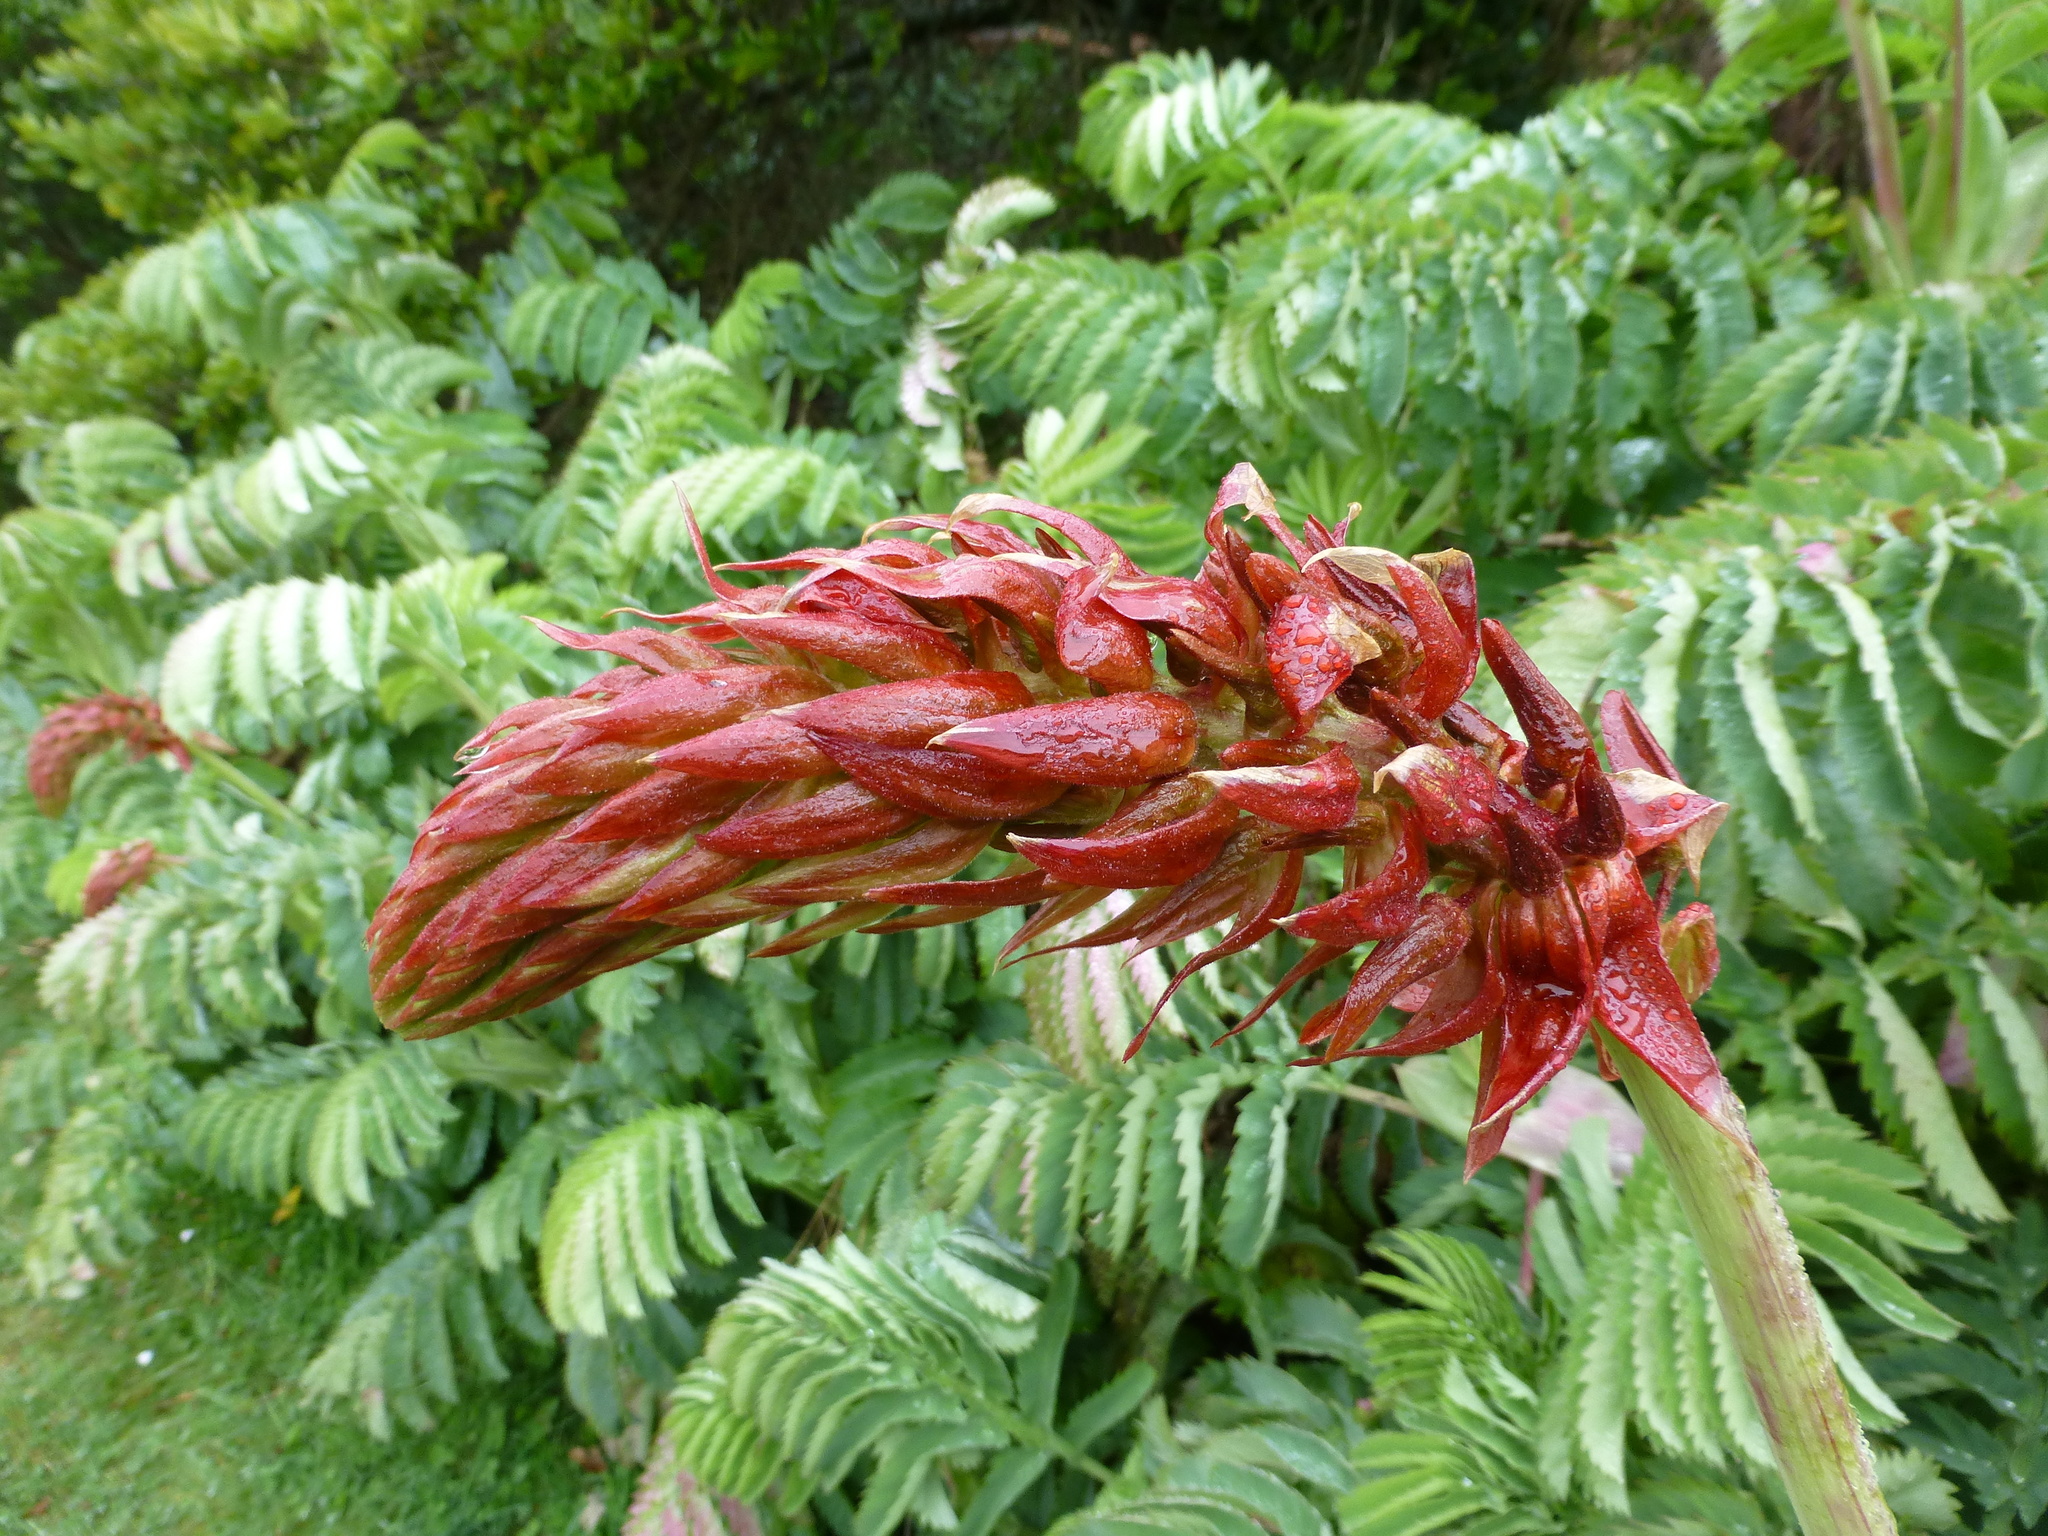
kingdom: Plantae
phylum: Tracheophyta
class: Magnoliopsida
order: Geraniales
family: Melianthaceae
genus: Melianthus
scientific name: Melianthus major
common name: Honey-flower
